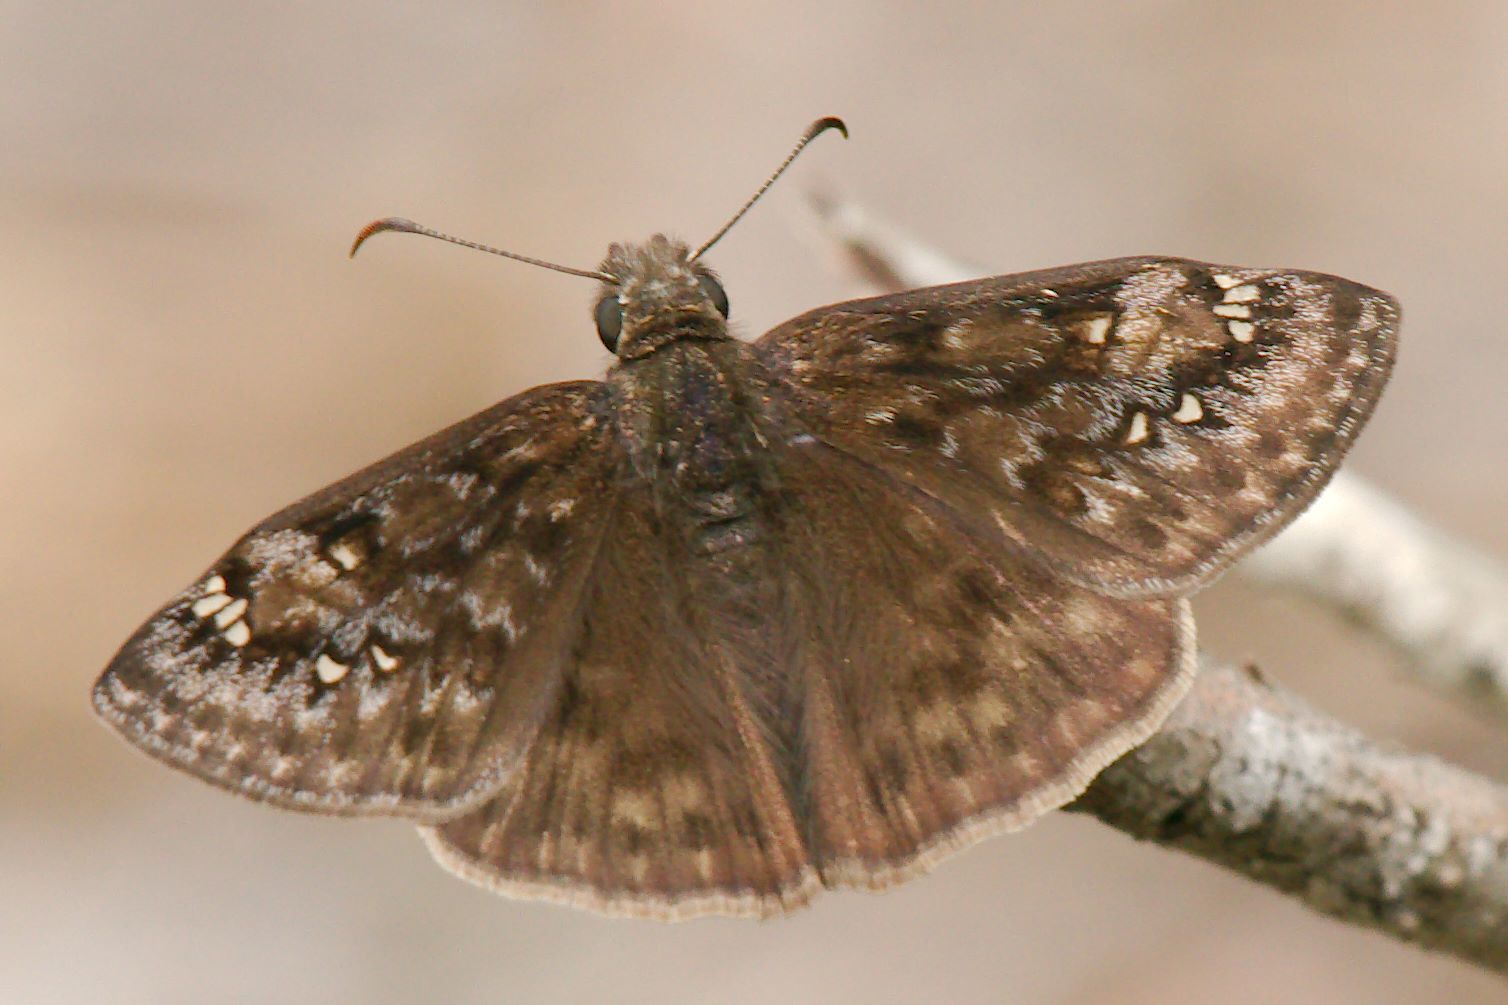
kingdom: Animalia
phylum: Arthropoda
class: Insecta
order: Lepidoptera
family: Hesperiidae
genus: Erynnis
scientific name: Erynnis juvenalis
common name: Juvenal's duskywing
